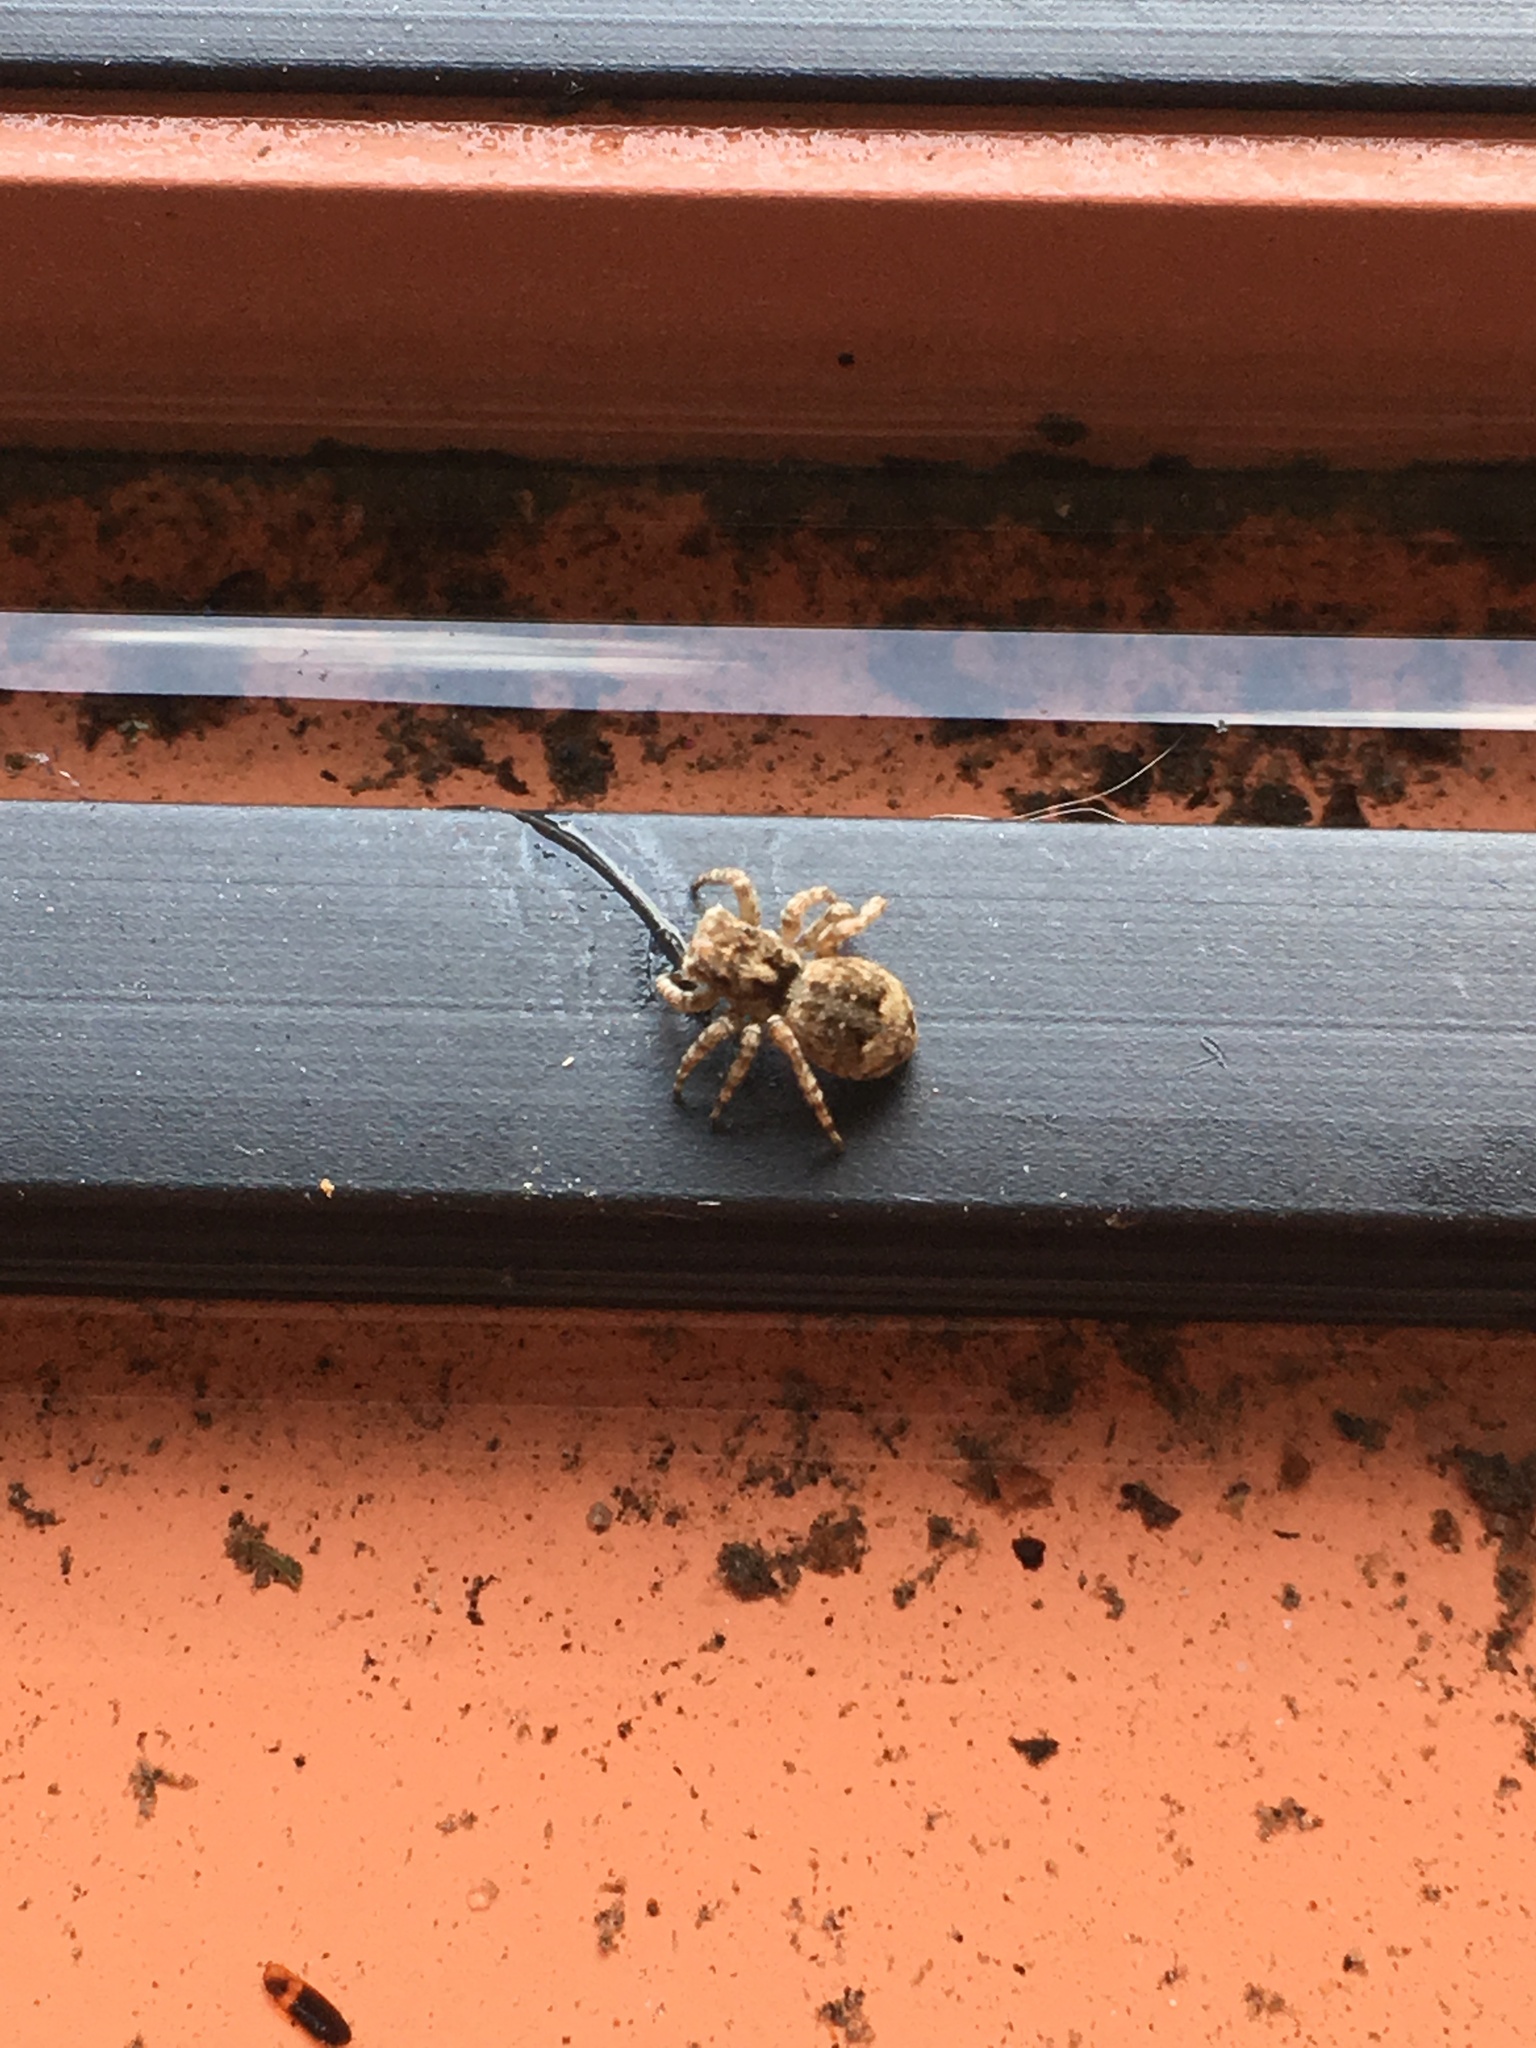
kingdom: Animalia
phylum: Arthropoda
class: Arachnida
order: Araneae
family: Salticidae
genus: Attulus
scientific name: Attulus fasciger
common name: Asiatic wall jumping spider
